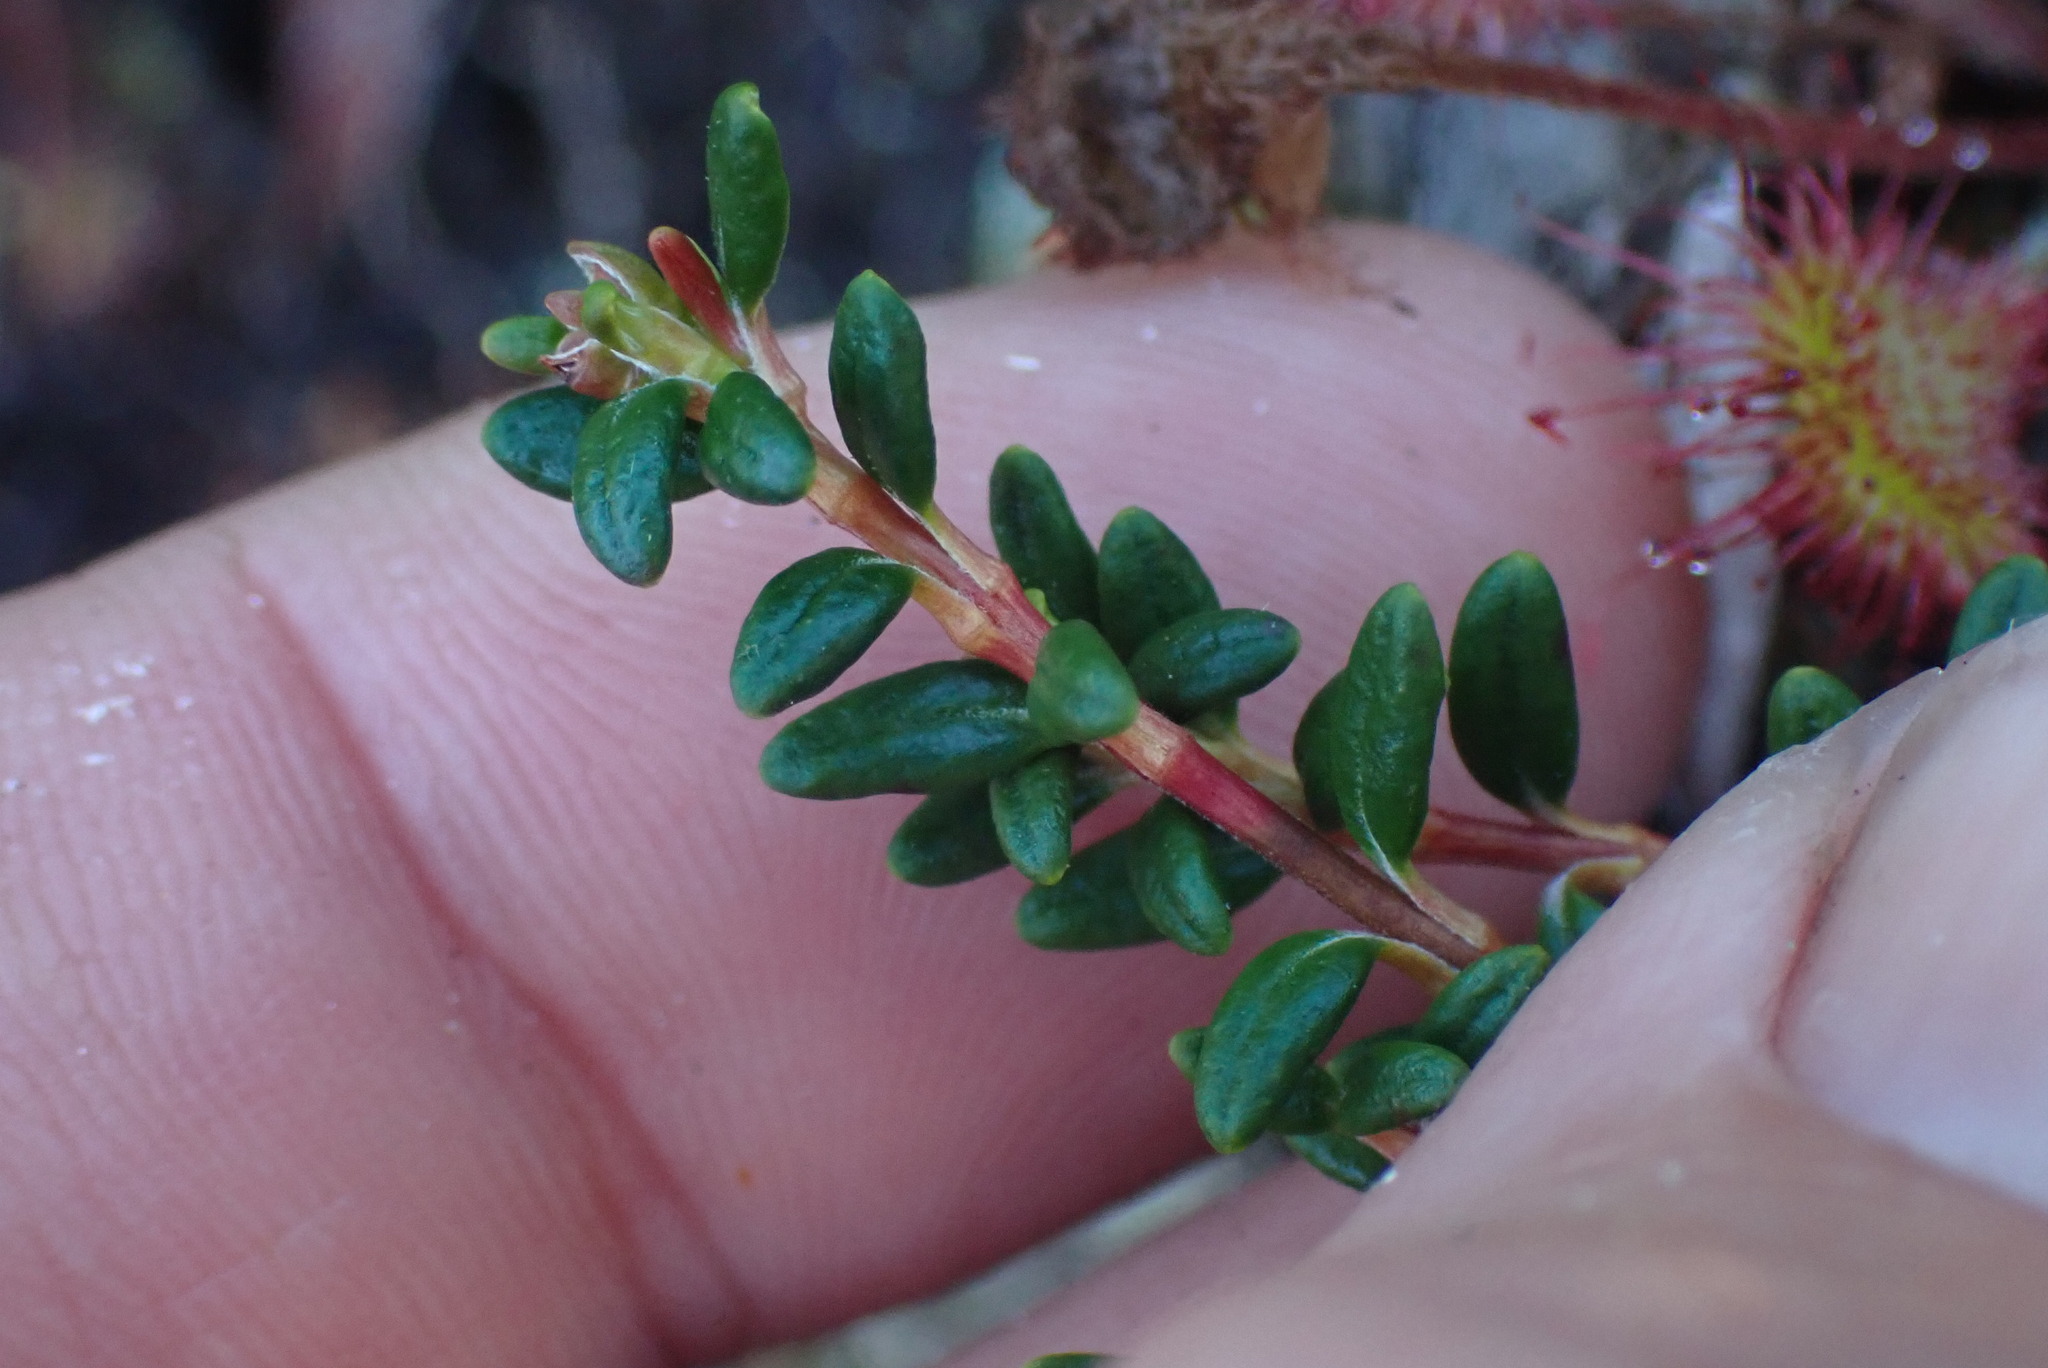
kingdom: Plantae
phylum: Tracheophyta
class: Magnoliopsida
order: Ericales
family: Ericaceae
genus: Kalmia
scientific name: Kalmia procumbens
